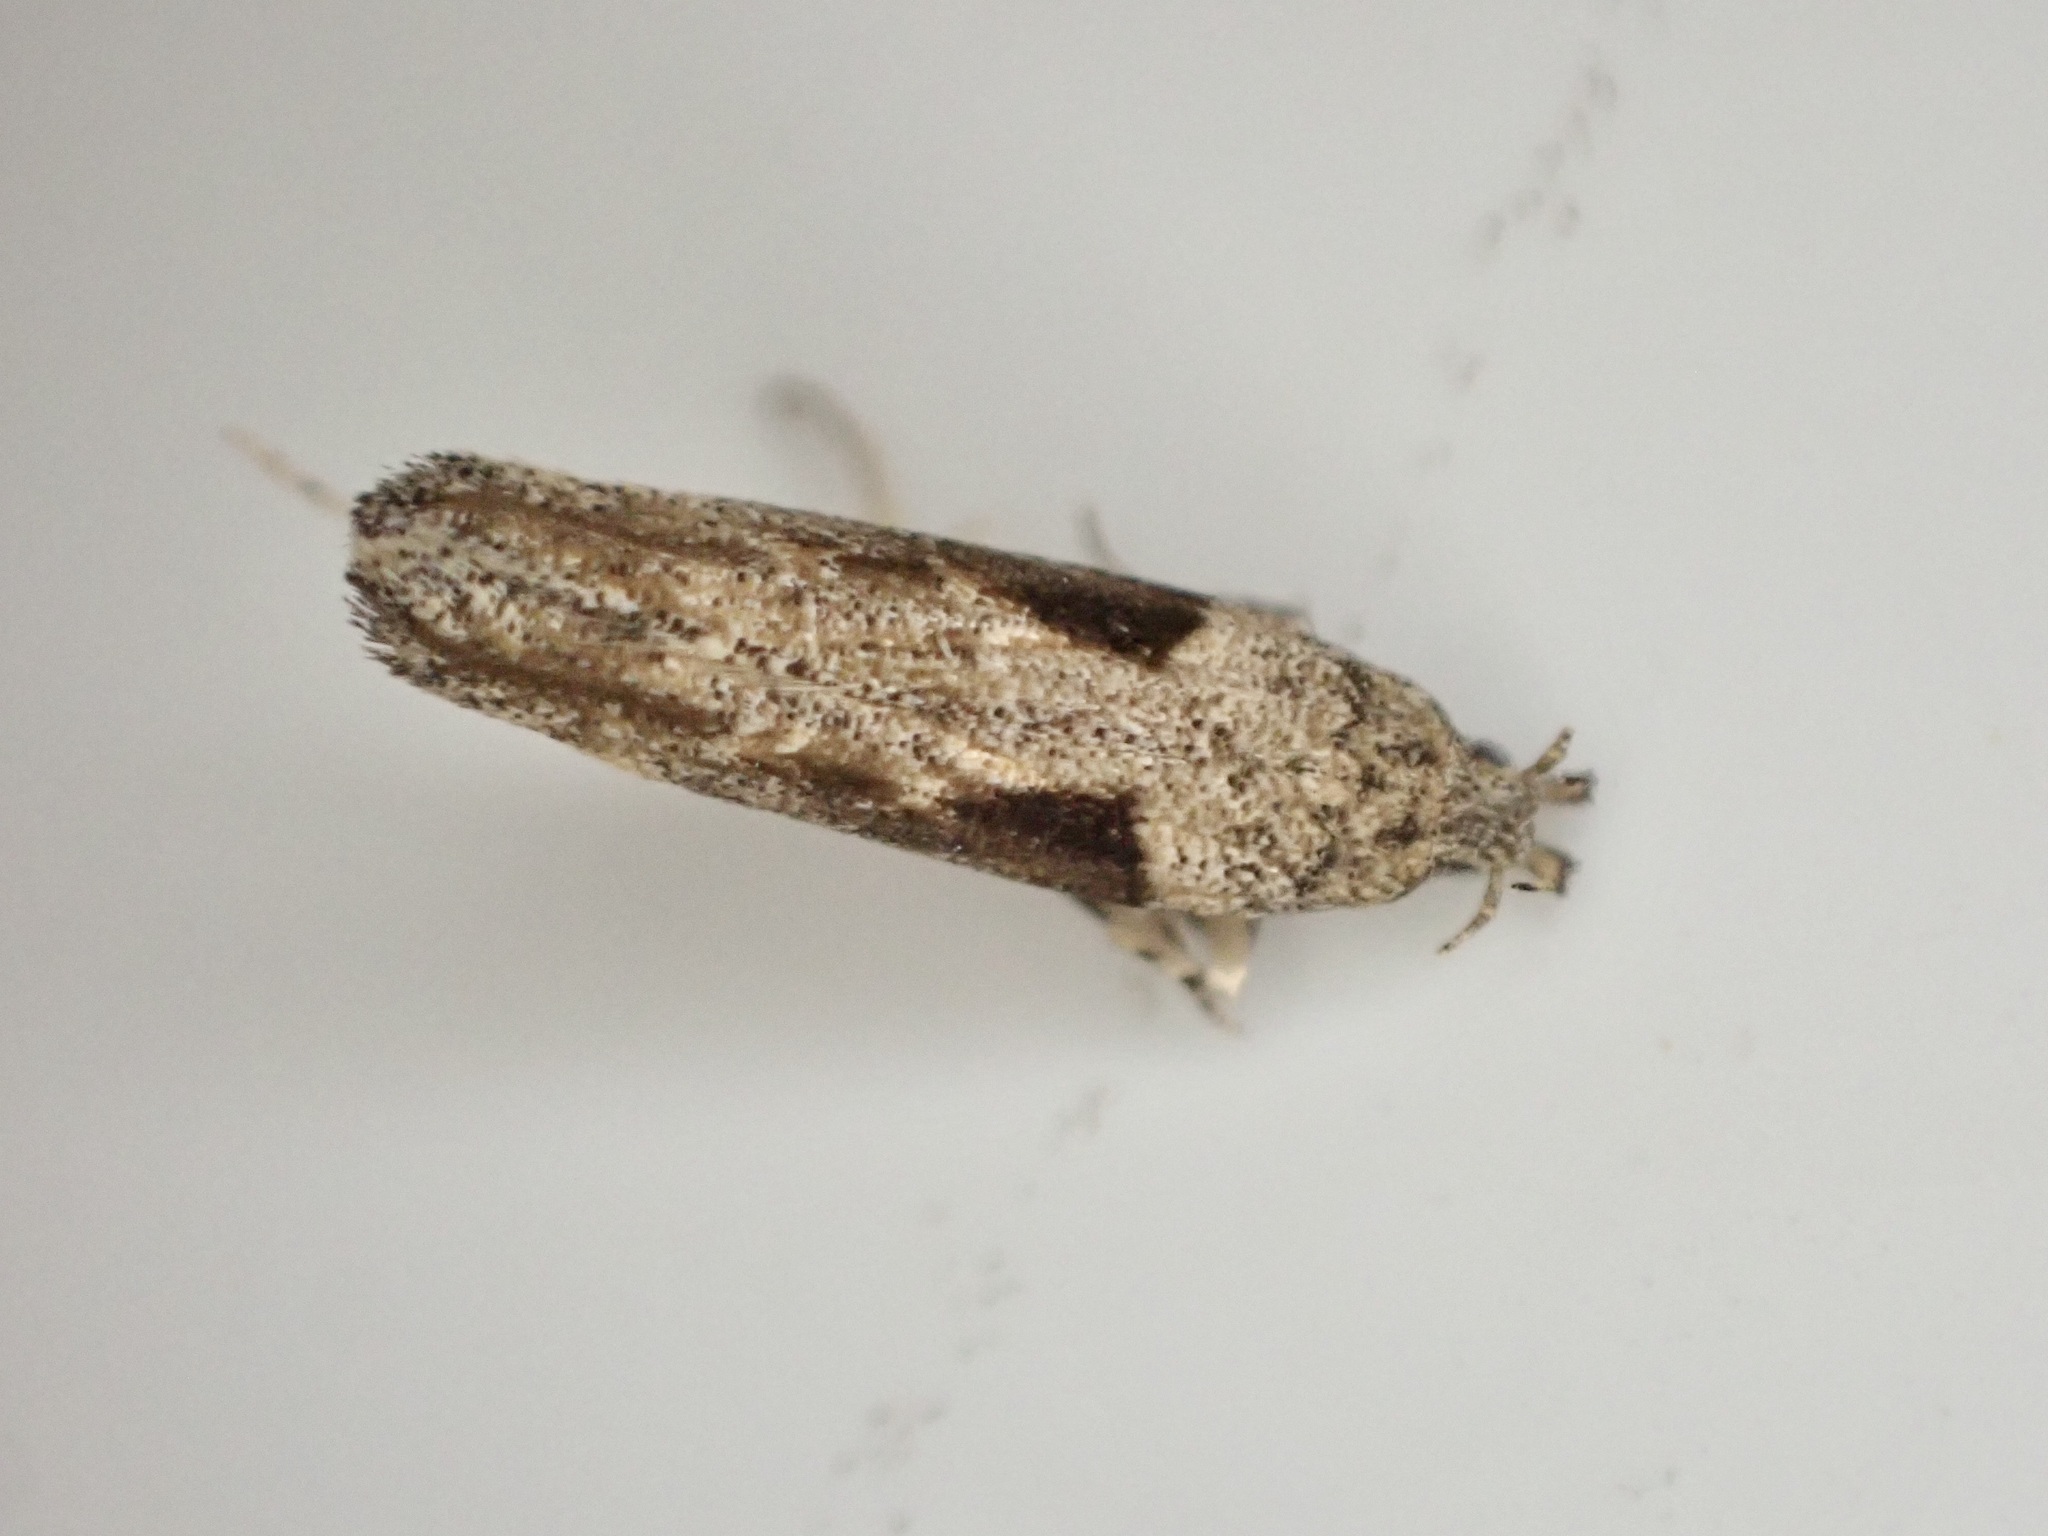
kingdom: Animalia
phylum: Arthropoda
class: Insecta
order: Lepidoptera
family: Gelechiidae
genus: Symmetrischema
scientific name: Symmetrischema tangolias
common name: Moth
